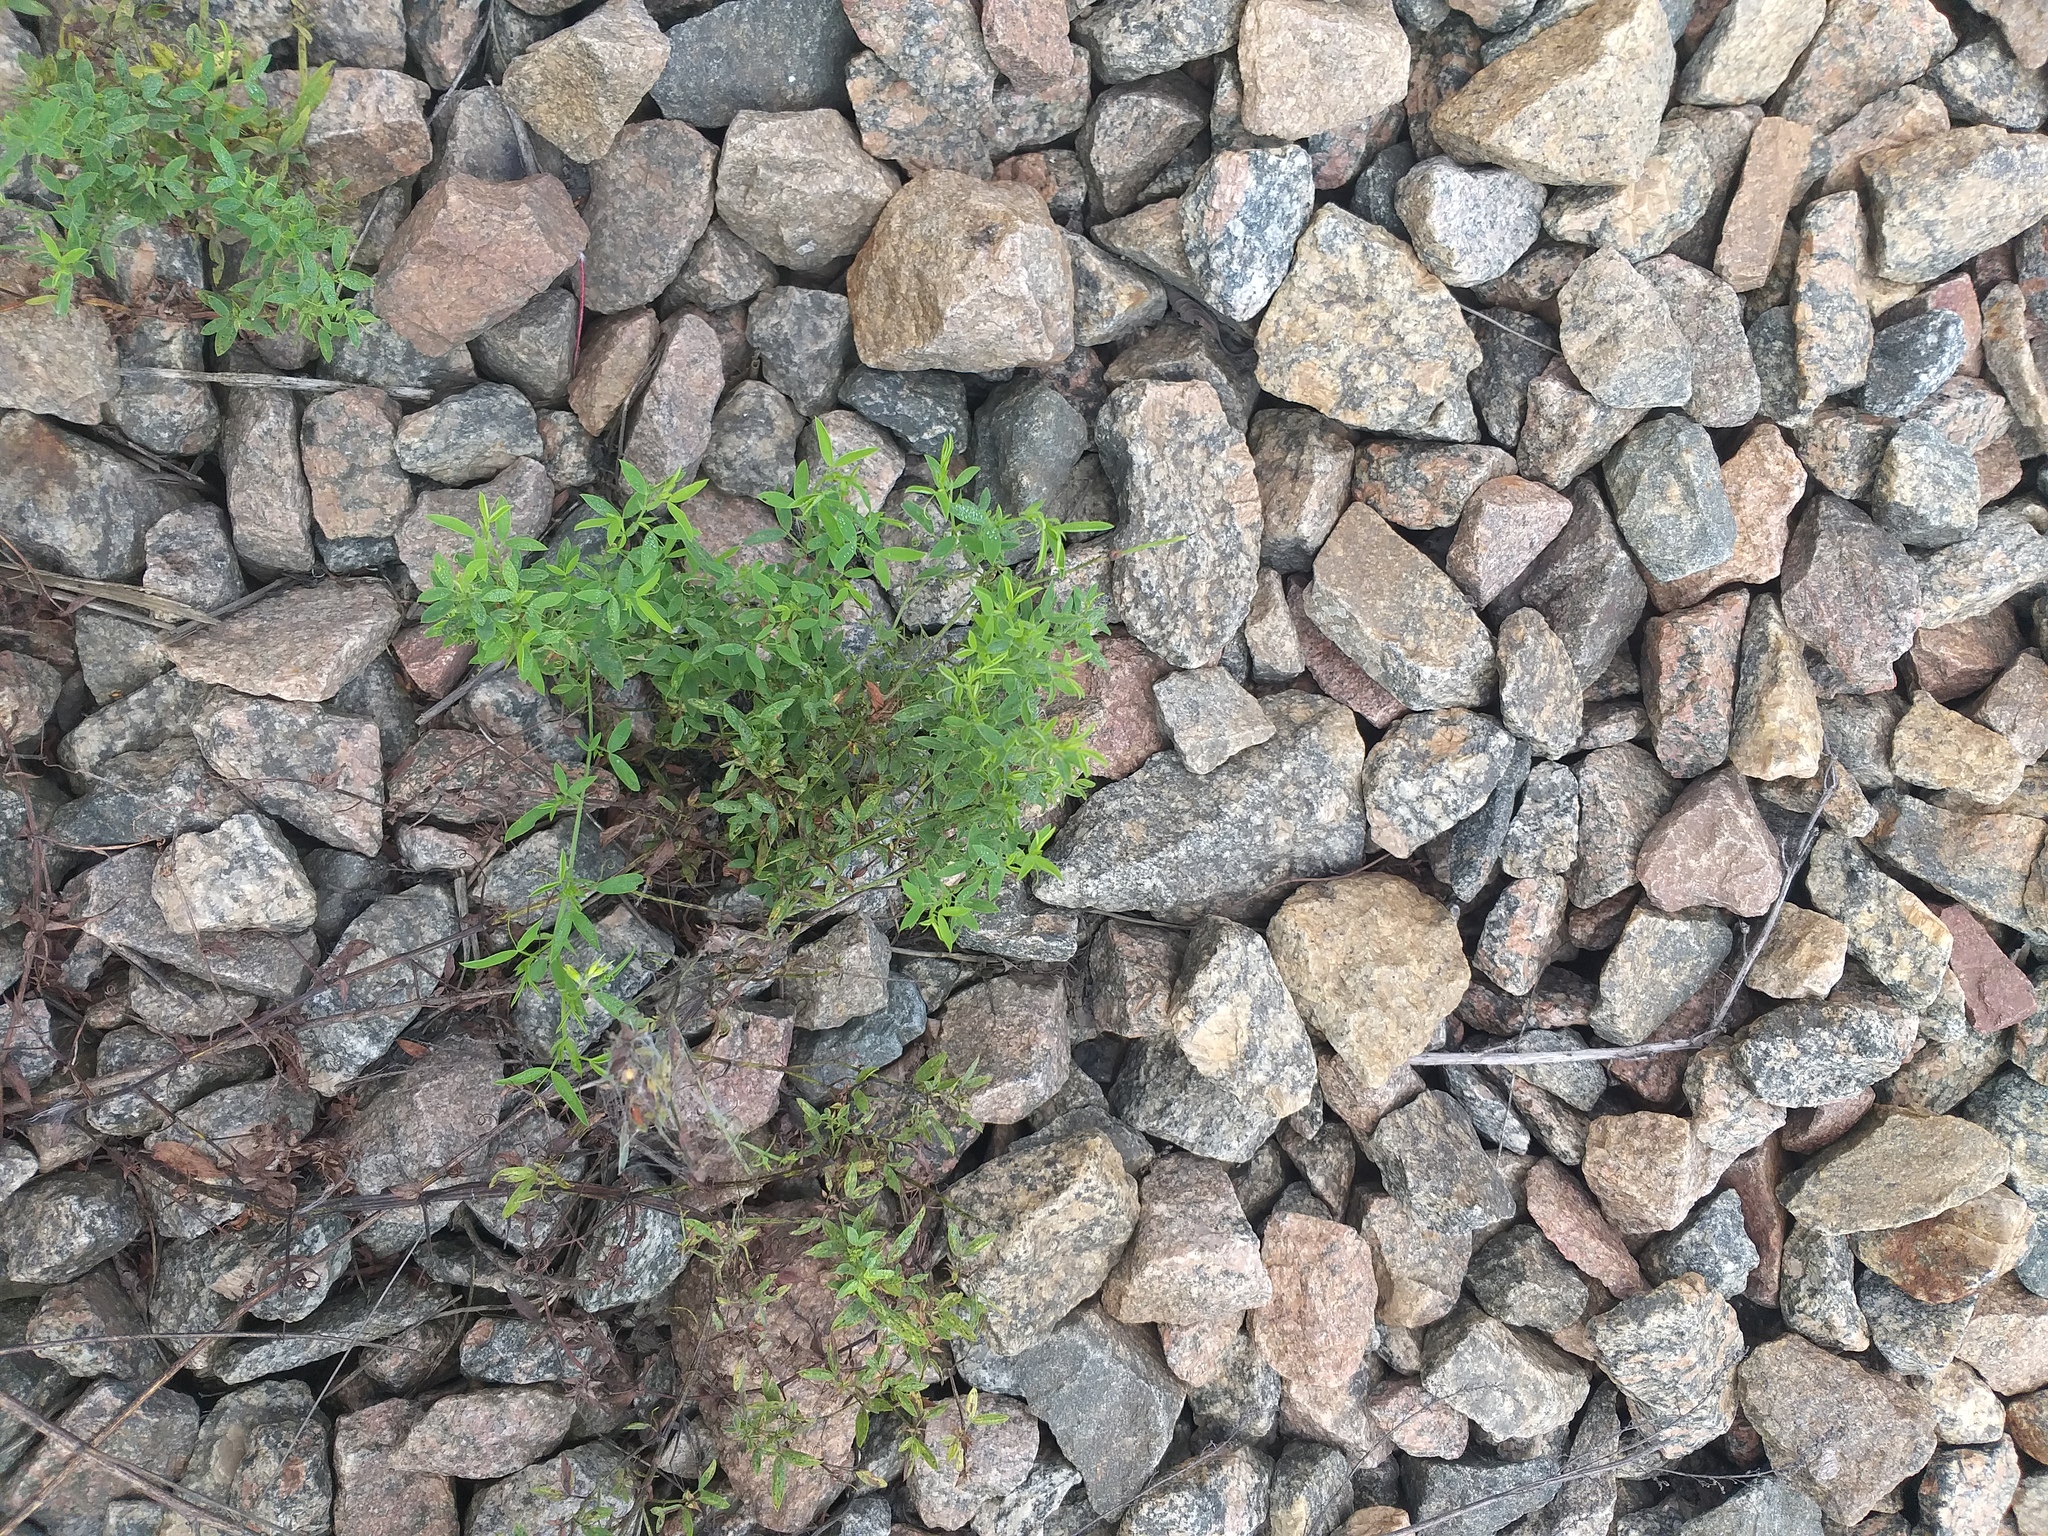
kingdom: Plantae
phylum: Tracheophyta
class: Magnoliopsida
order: Fabales
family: Fabaceae
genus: Lathyrus
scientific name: Lathyrus pratensis
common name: Meadow vetchling
